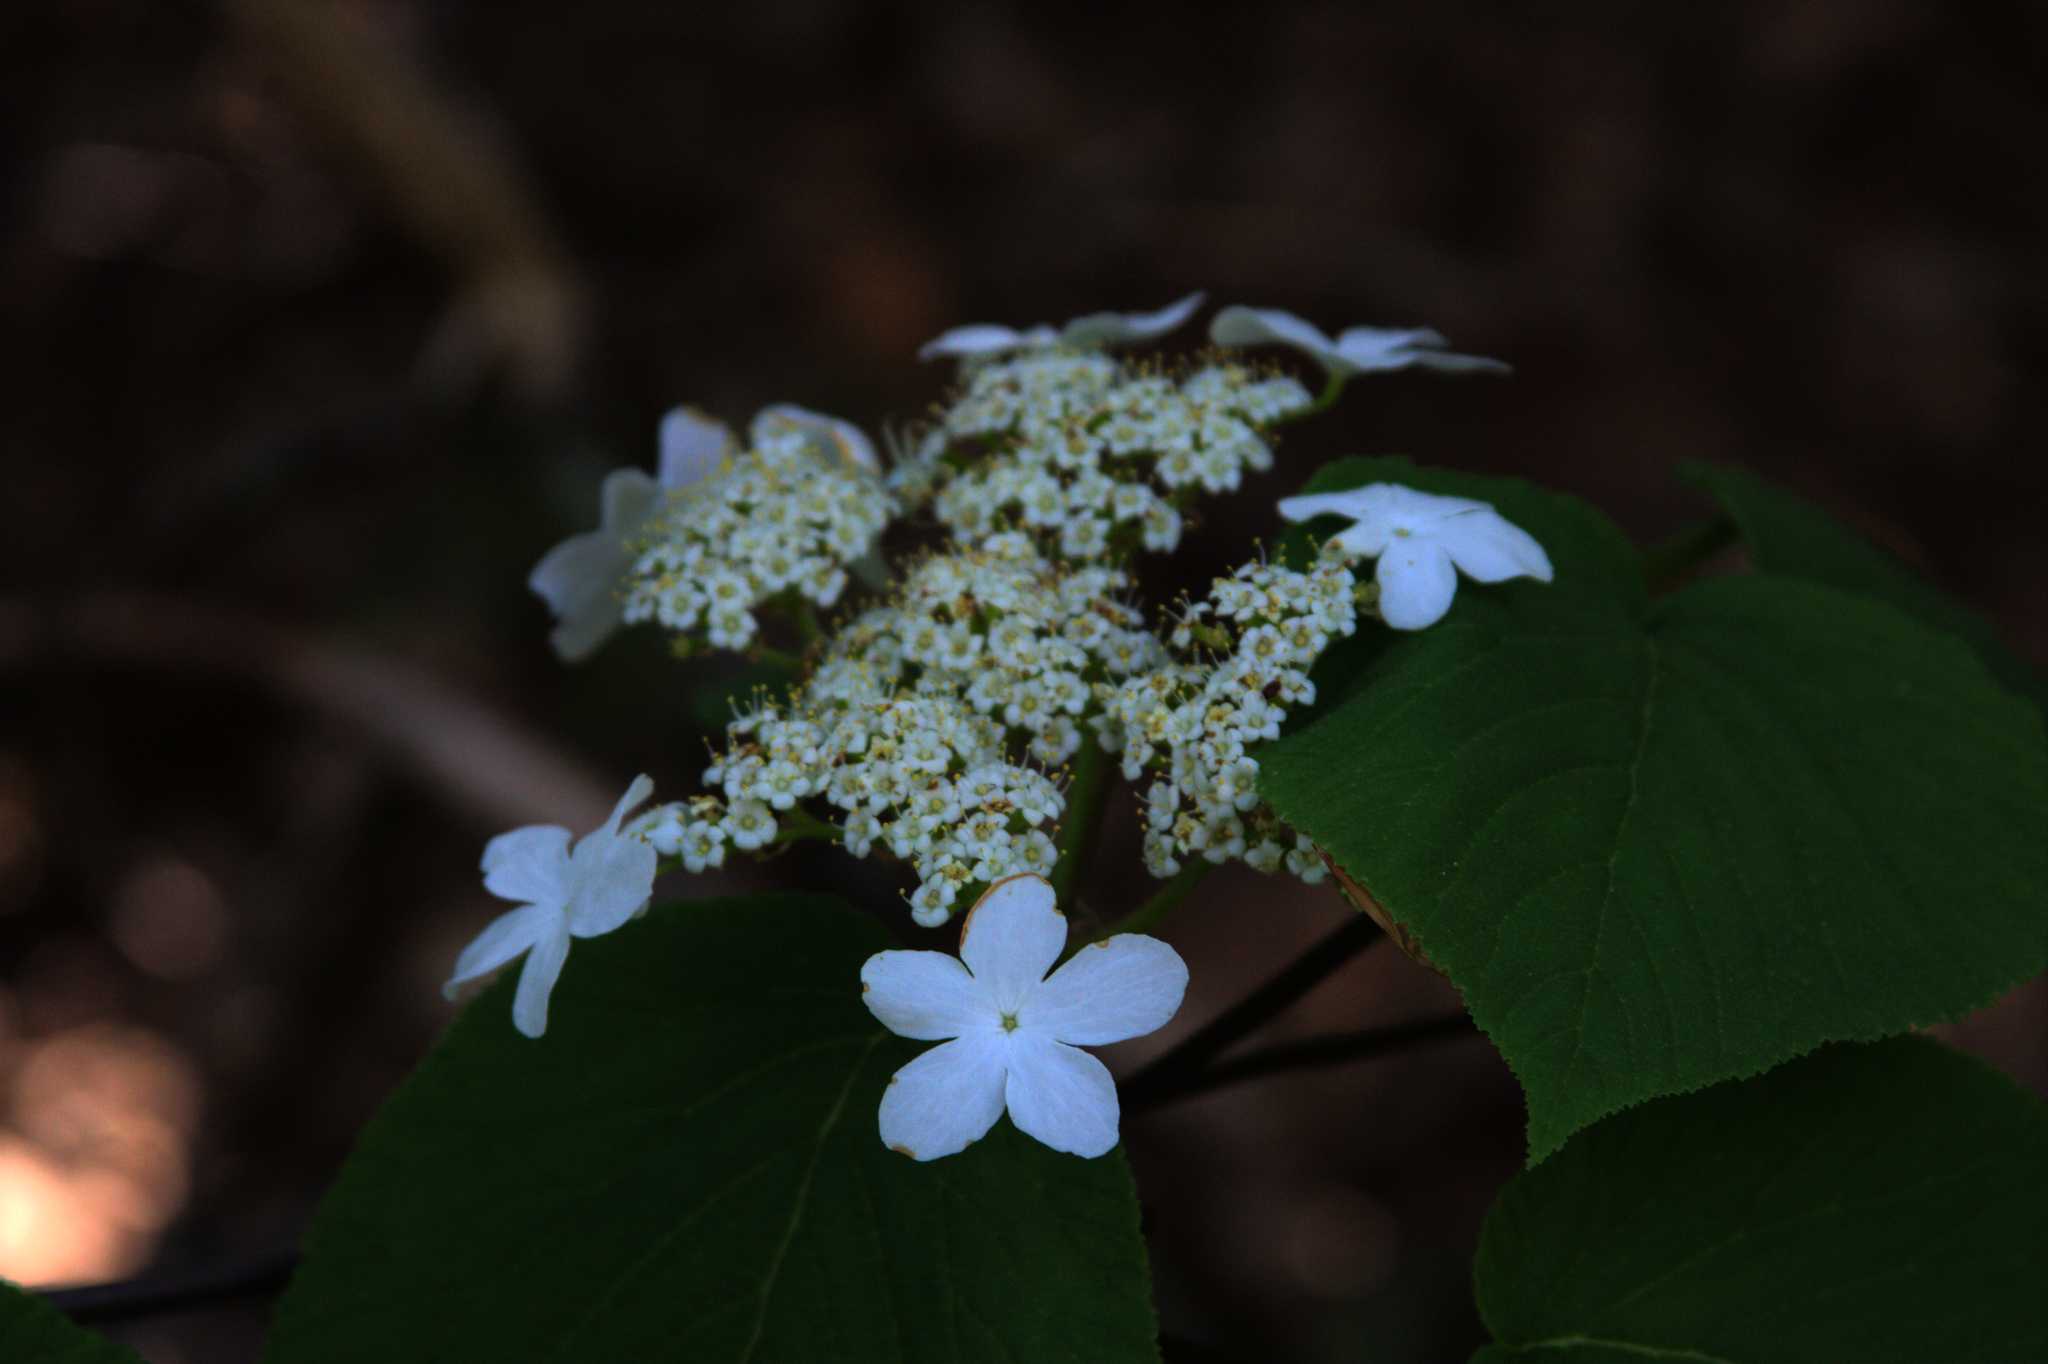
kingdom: Plantae
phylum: Tracheophyta
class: Magnoliopsida
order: Dipsacales
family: Viburnaceae
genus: Viburnum
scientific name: Viburnum lantanoides
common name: Hobblebush
